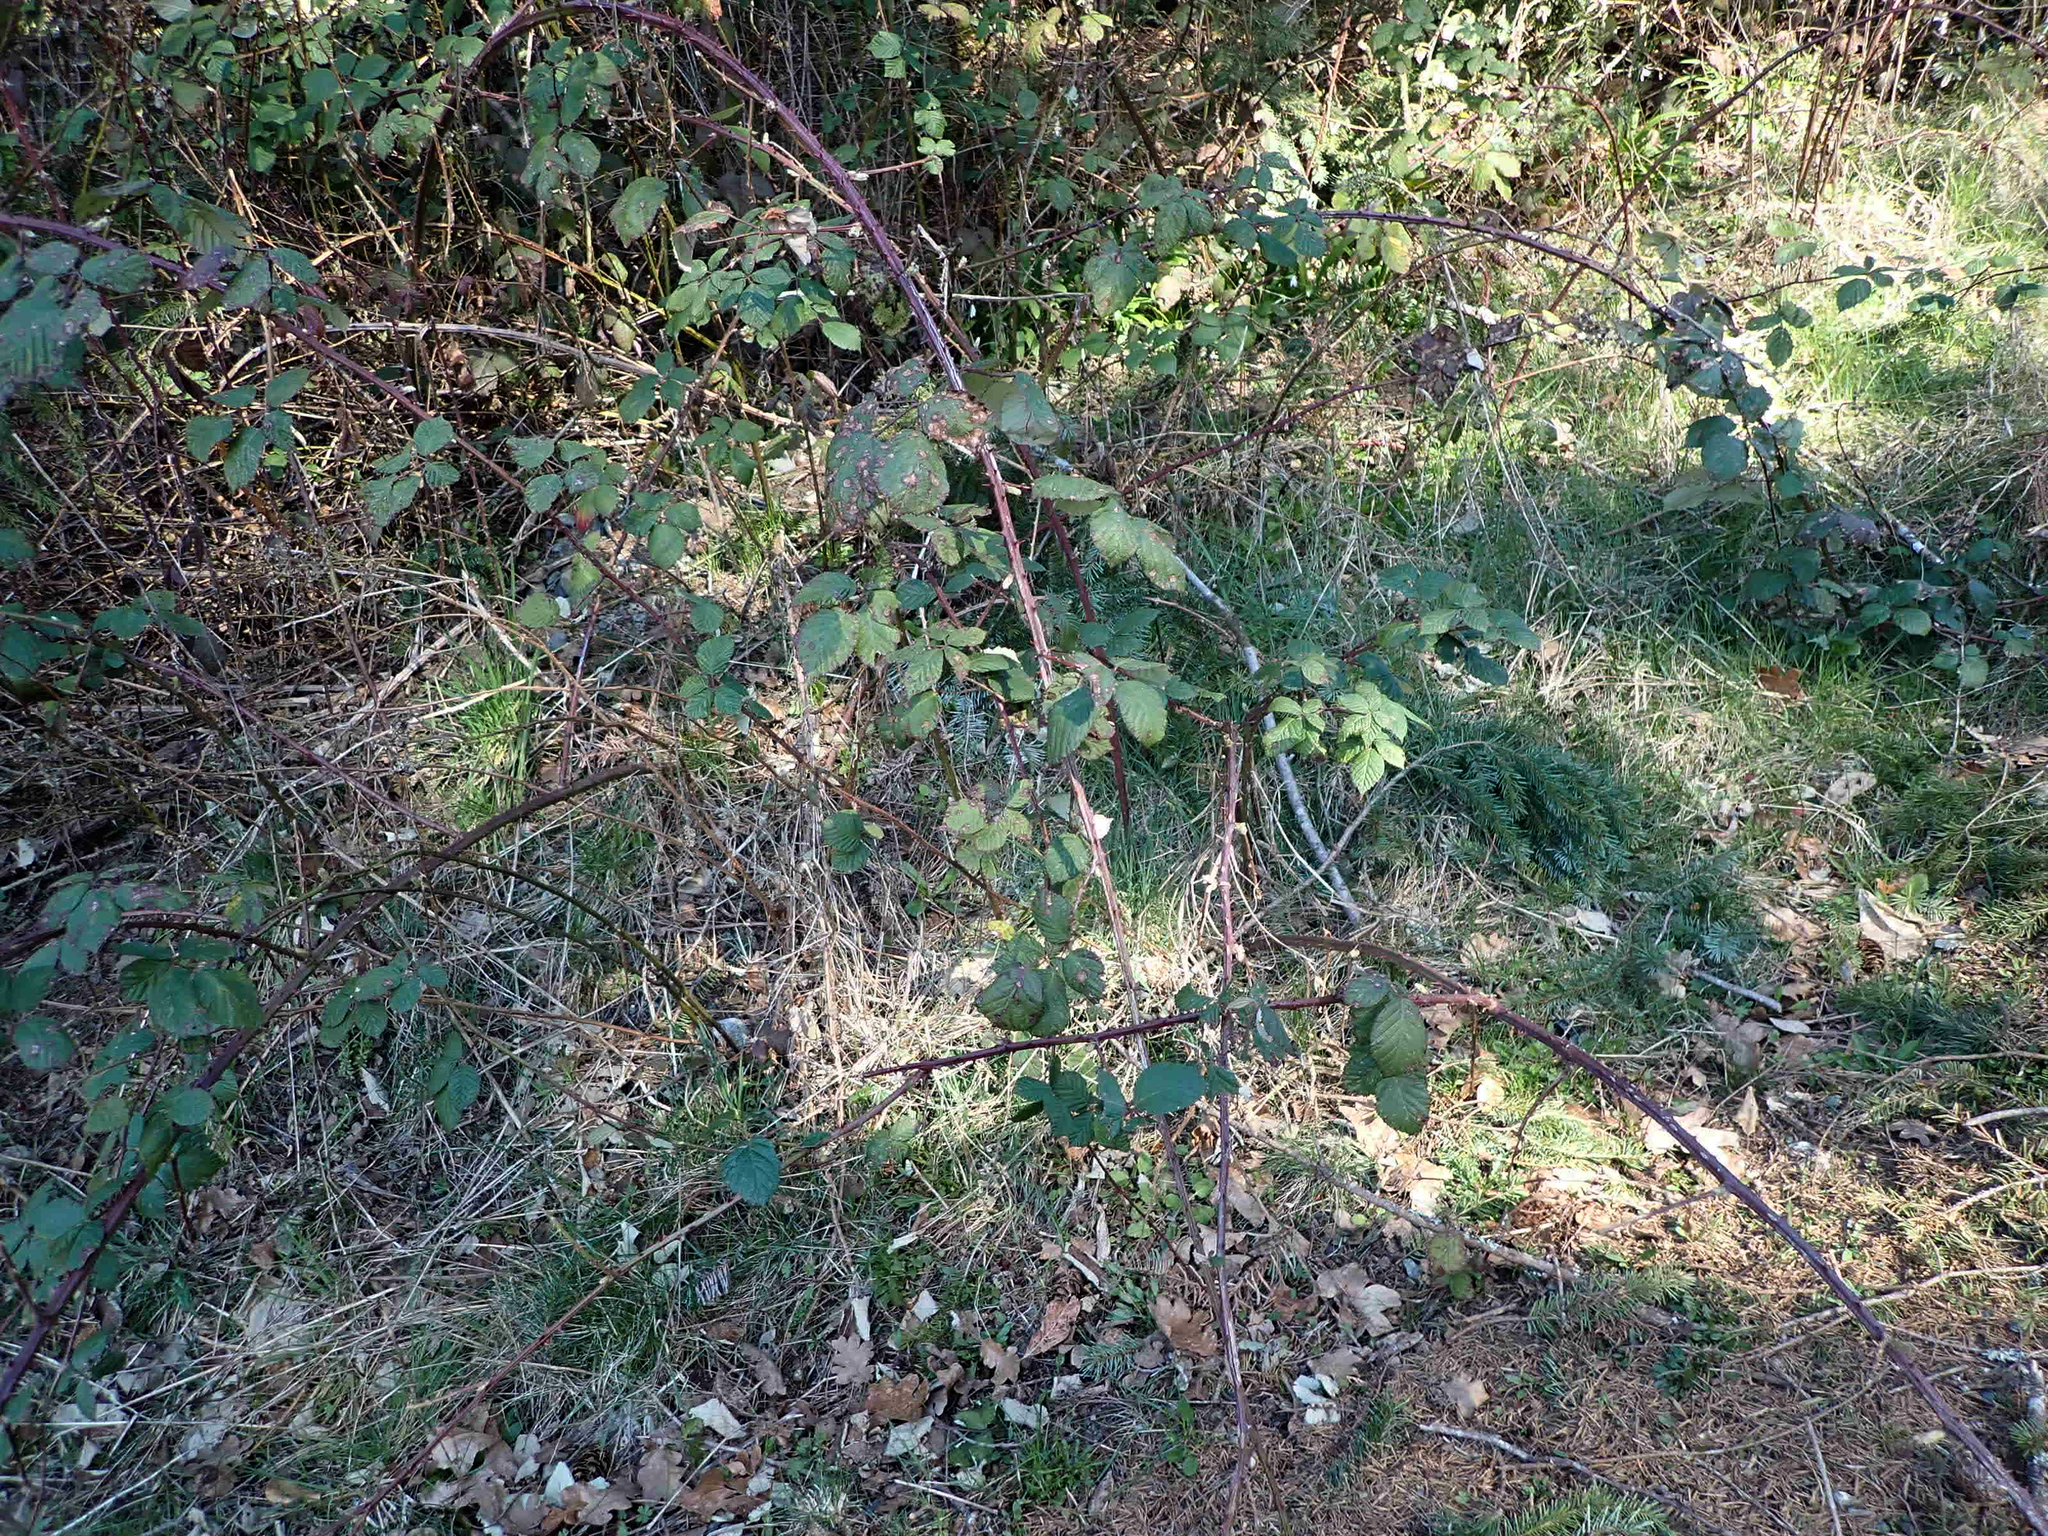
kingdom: Plantae
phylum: Tracheophyta
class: Magnoliopsida
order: Rosales
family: Rosaceae
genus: Rubus
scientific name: Rubus bifrons
